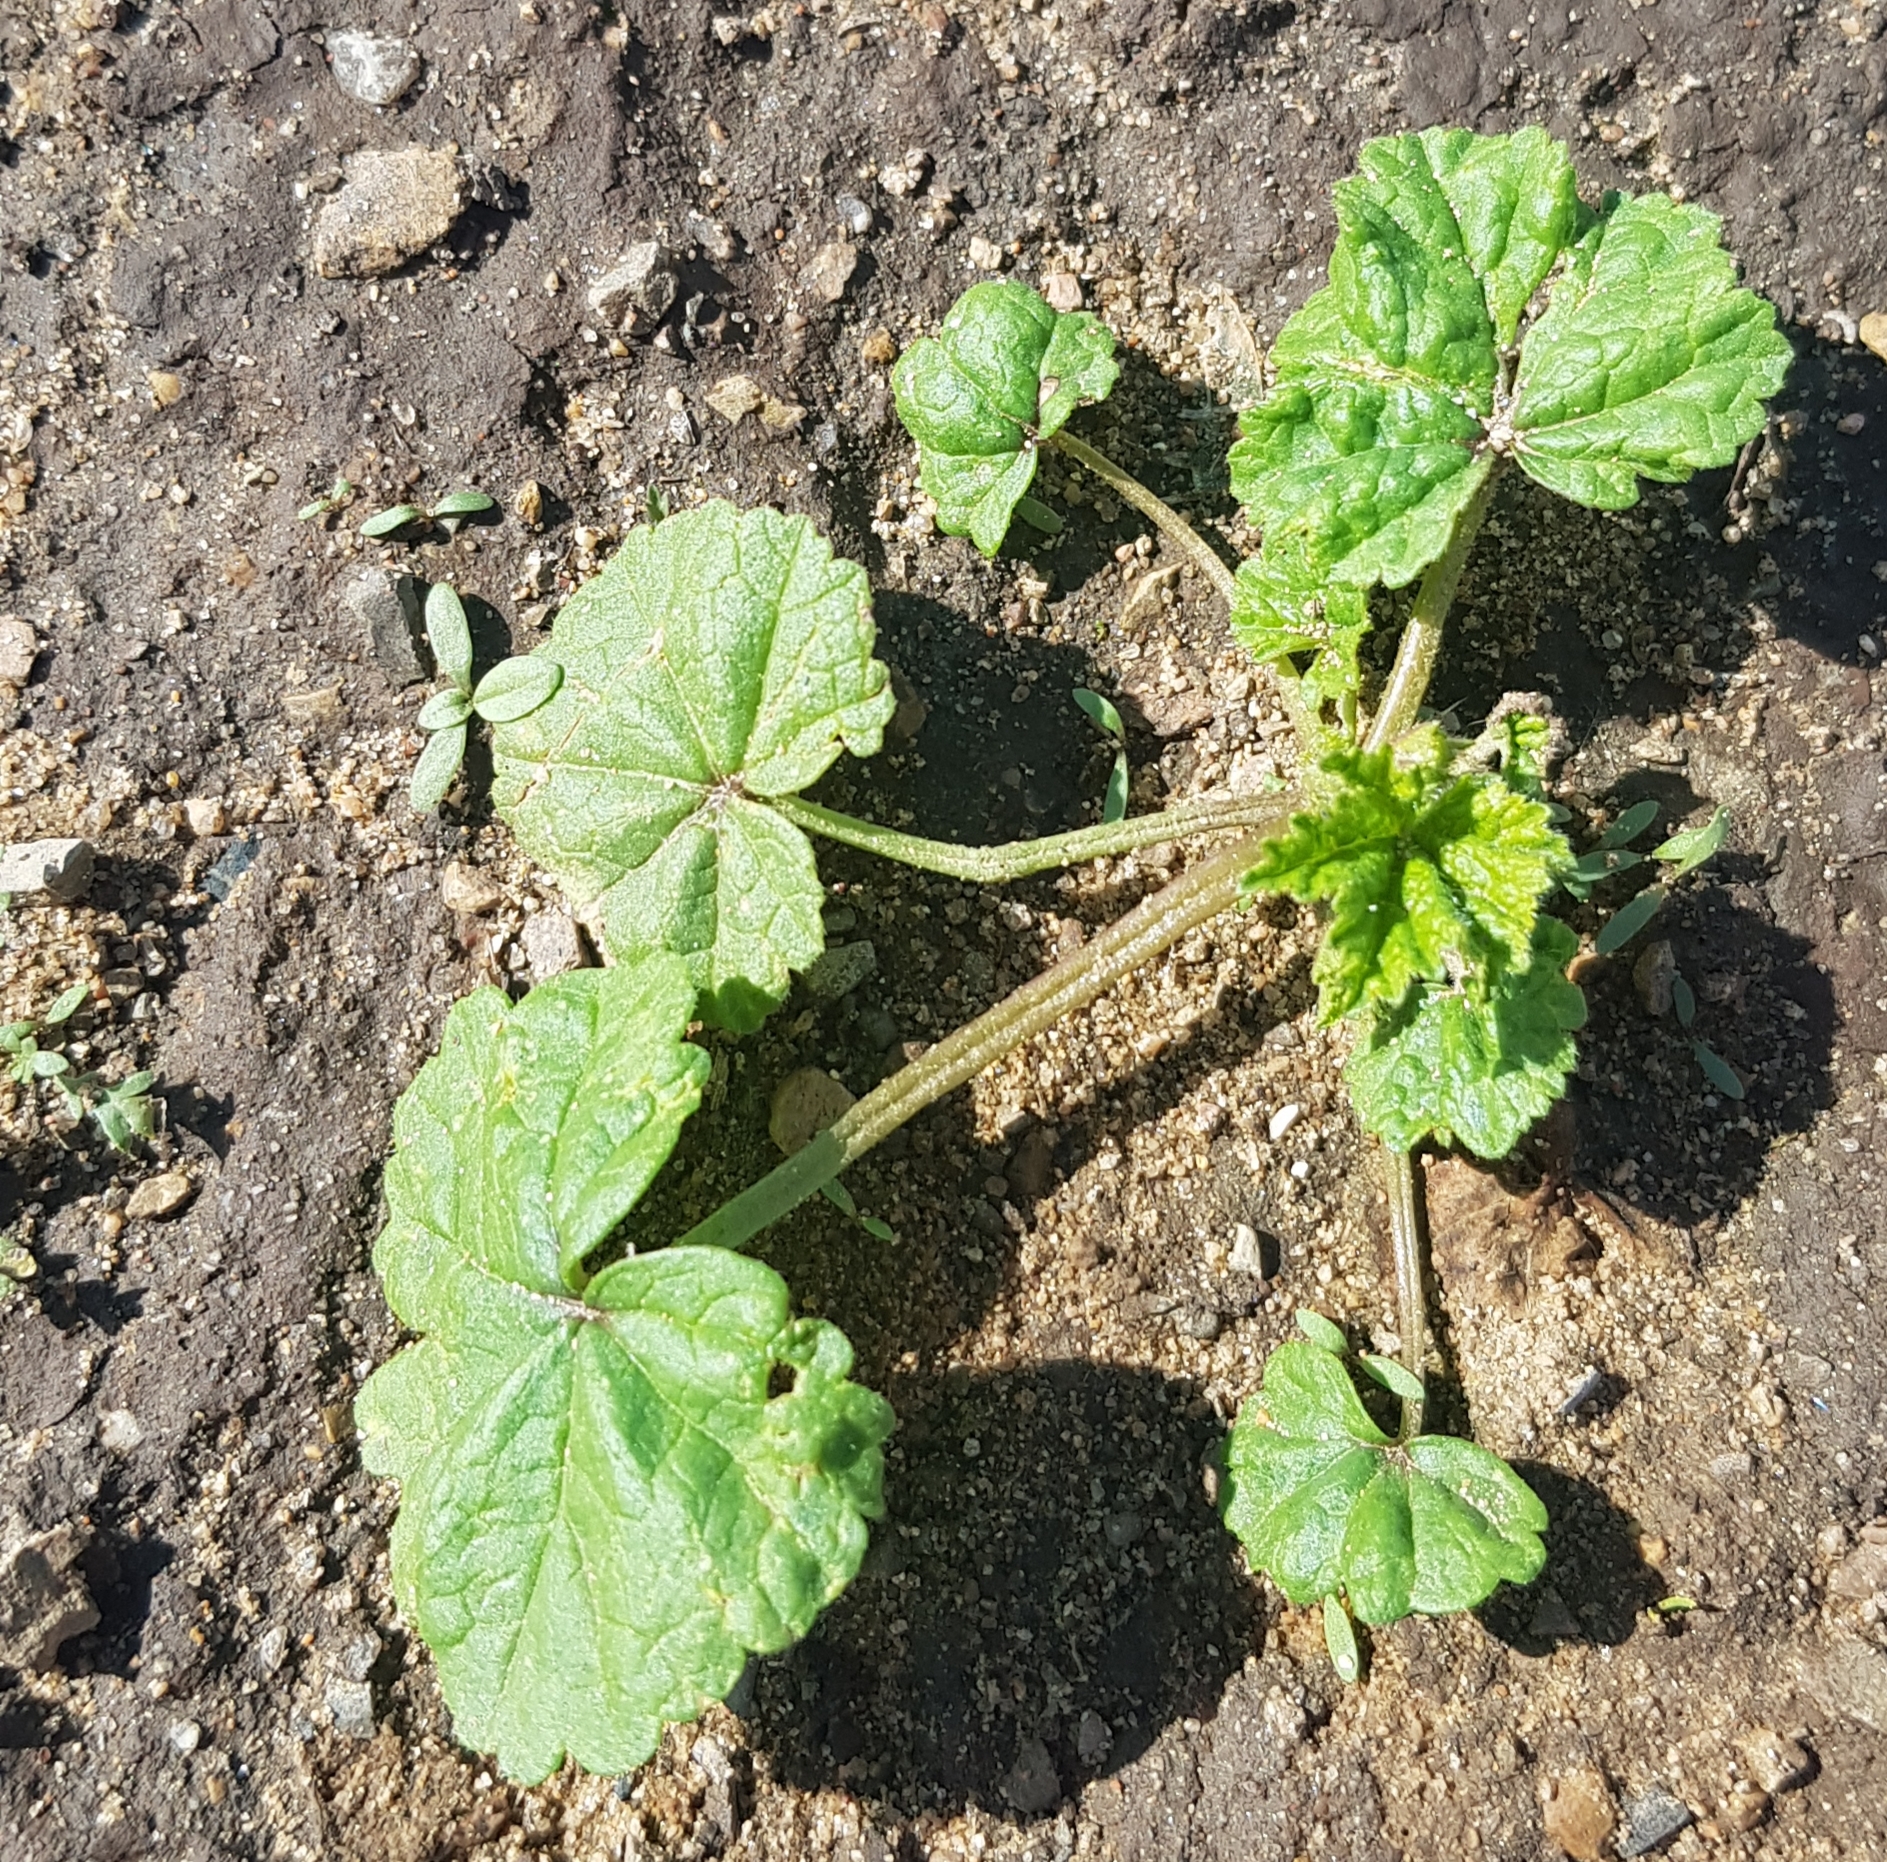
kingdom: Plantae
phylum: Tracheophyta
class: Magnoliopsida
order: Malvales
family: Malvaceae
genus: Malva
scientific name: Malva verticillata
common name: Chinese mallow
